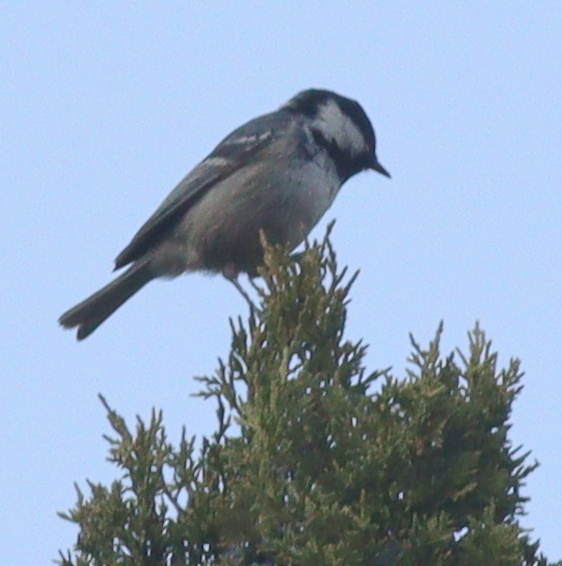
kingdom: Animalia
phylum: Chordata
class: Aves
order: Passeriformes
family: Paridae
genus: Periparus
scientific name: Periparus ater
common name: Coal tit
